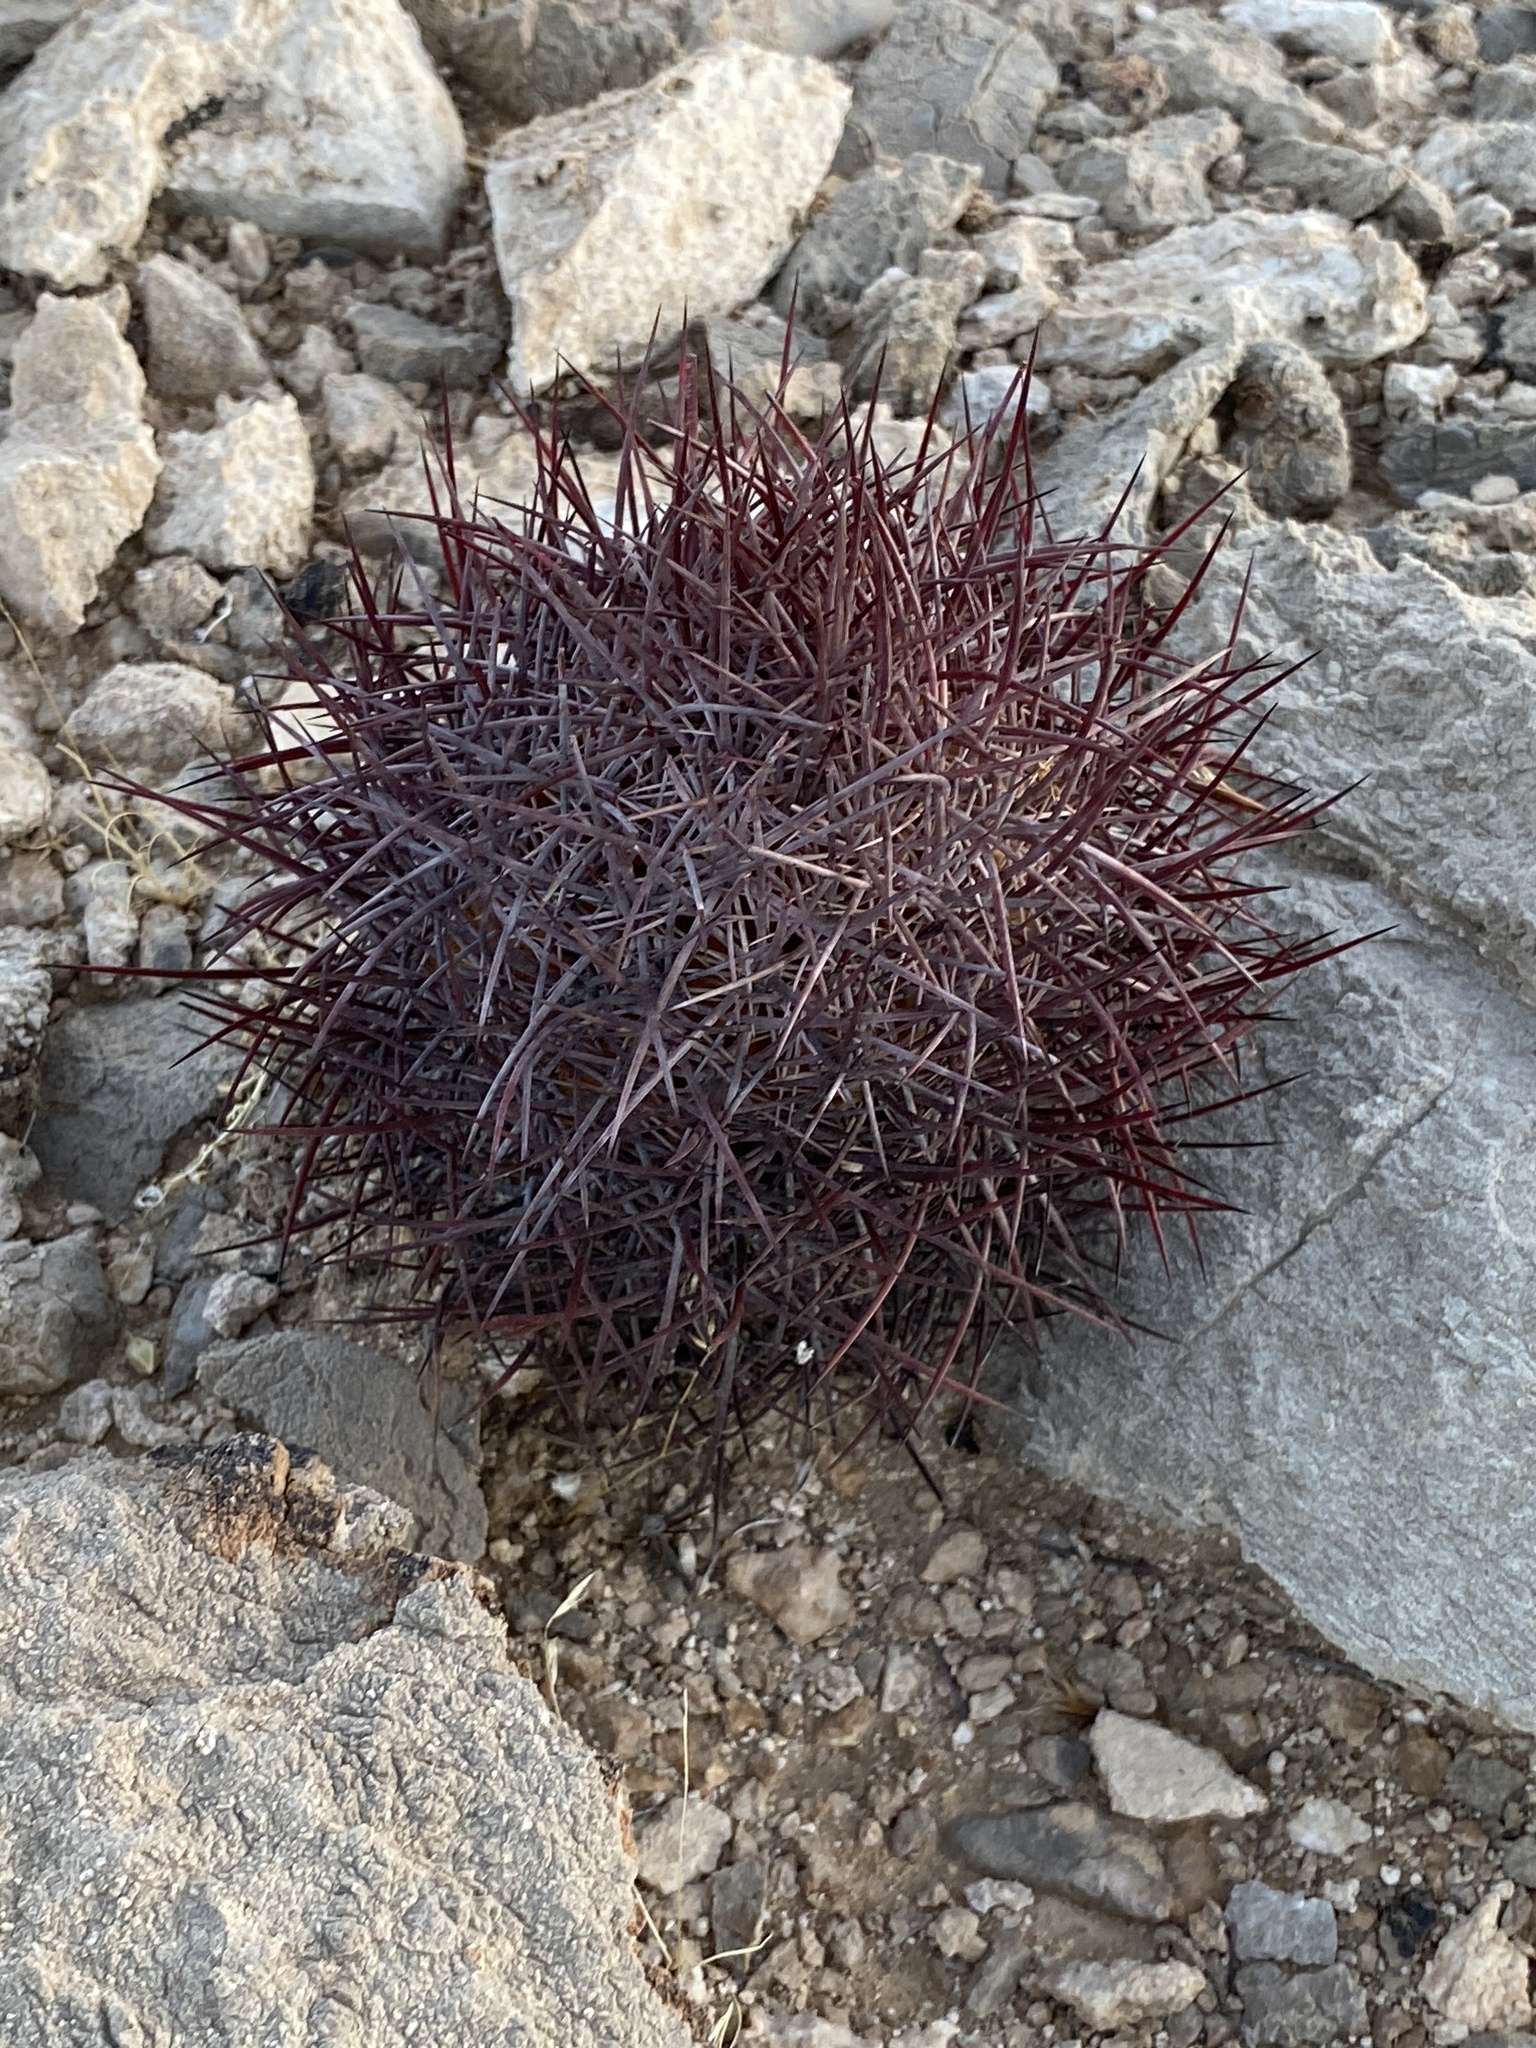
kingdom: Plantae
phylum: Tracheophyta
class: Magnoliopsida
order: Caryophyllales
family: Cactaceae
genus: Sclerocactus
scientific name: Sclerocactus johnsonii
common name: Eight-spine fishhook cactus
